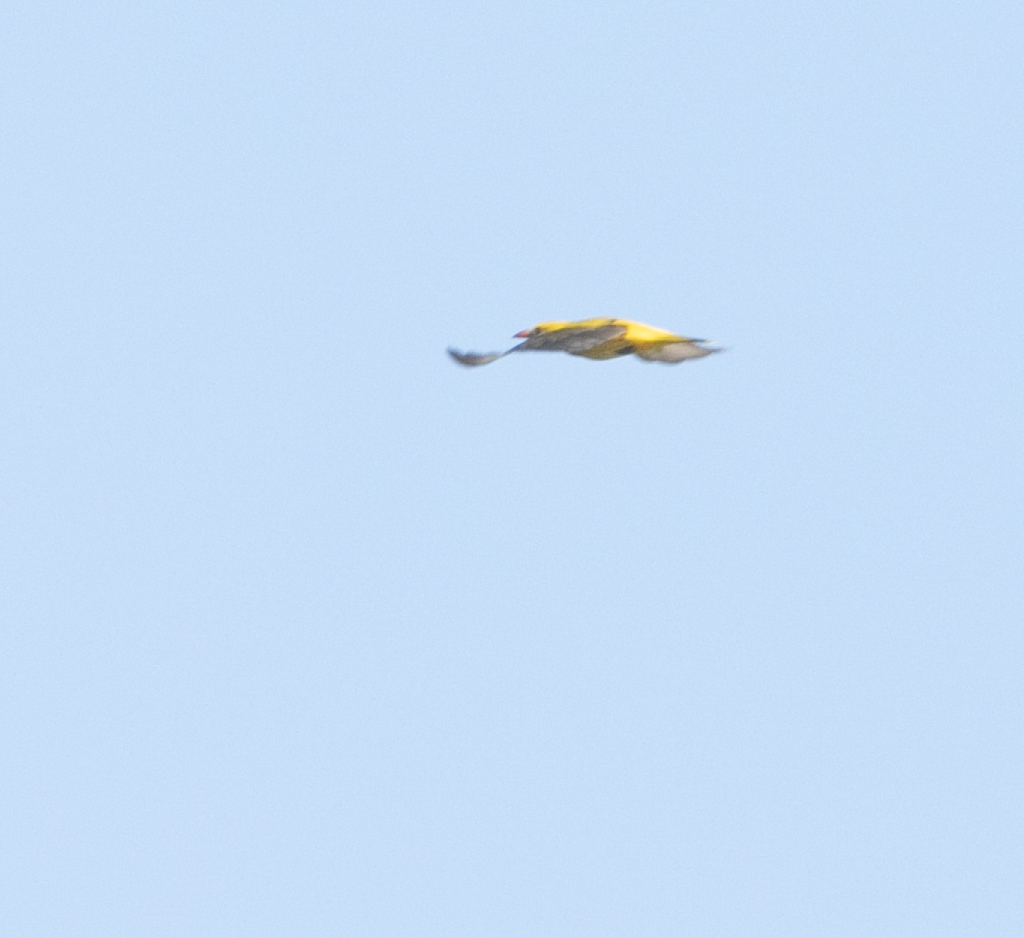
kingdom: Animalia
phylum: Chordata
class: Aves
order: Passeriformes
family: Oriolidae
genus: Oriolus
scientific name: Oriolus oriolus
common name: Eurasian golden oriole
